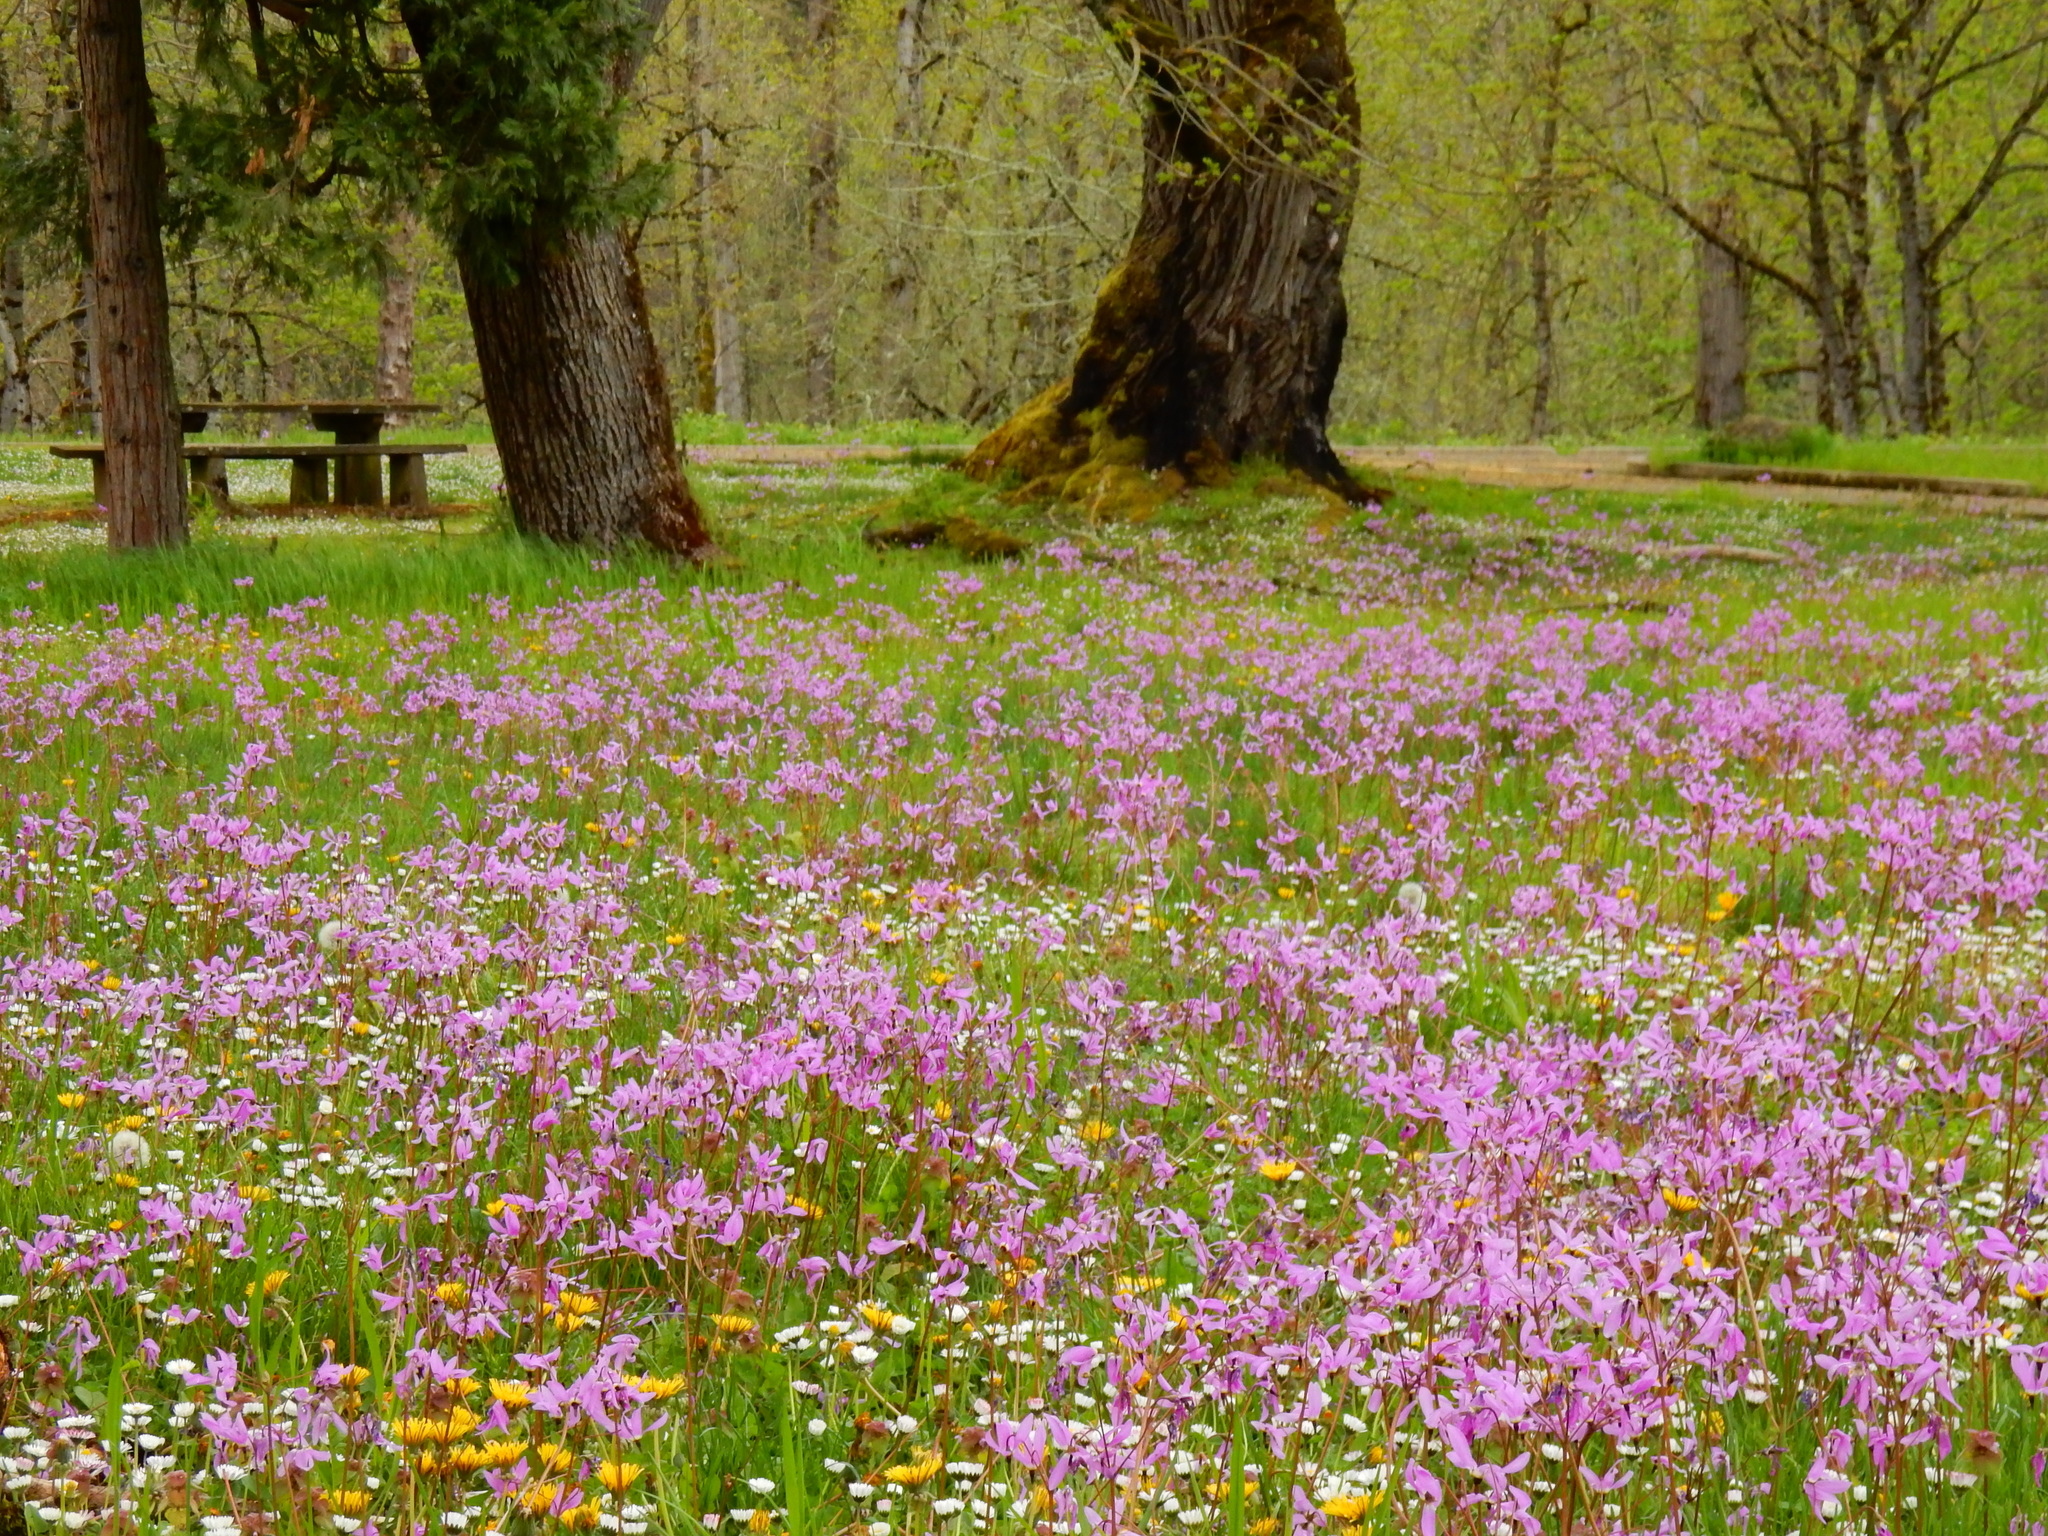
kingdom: Plantae
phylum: Tracheophyta
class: Magnoliopsida
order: Ericales
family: Primulaceae
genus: Dodecatheon
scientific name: Dodecatheon hendersonii
